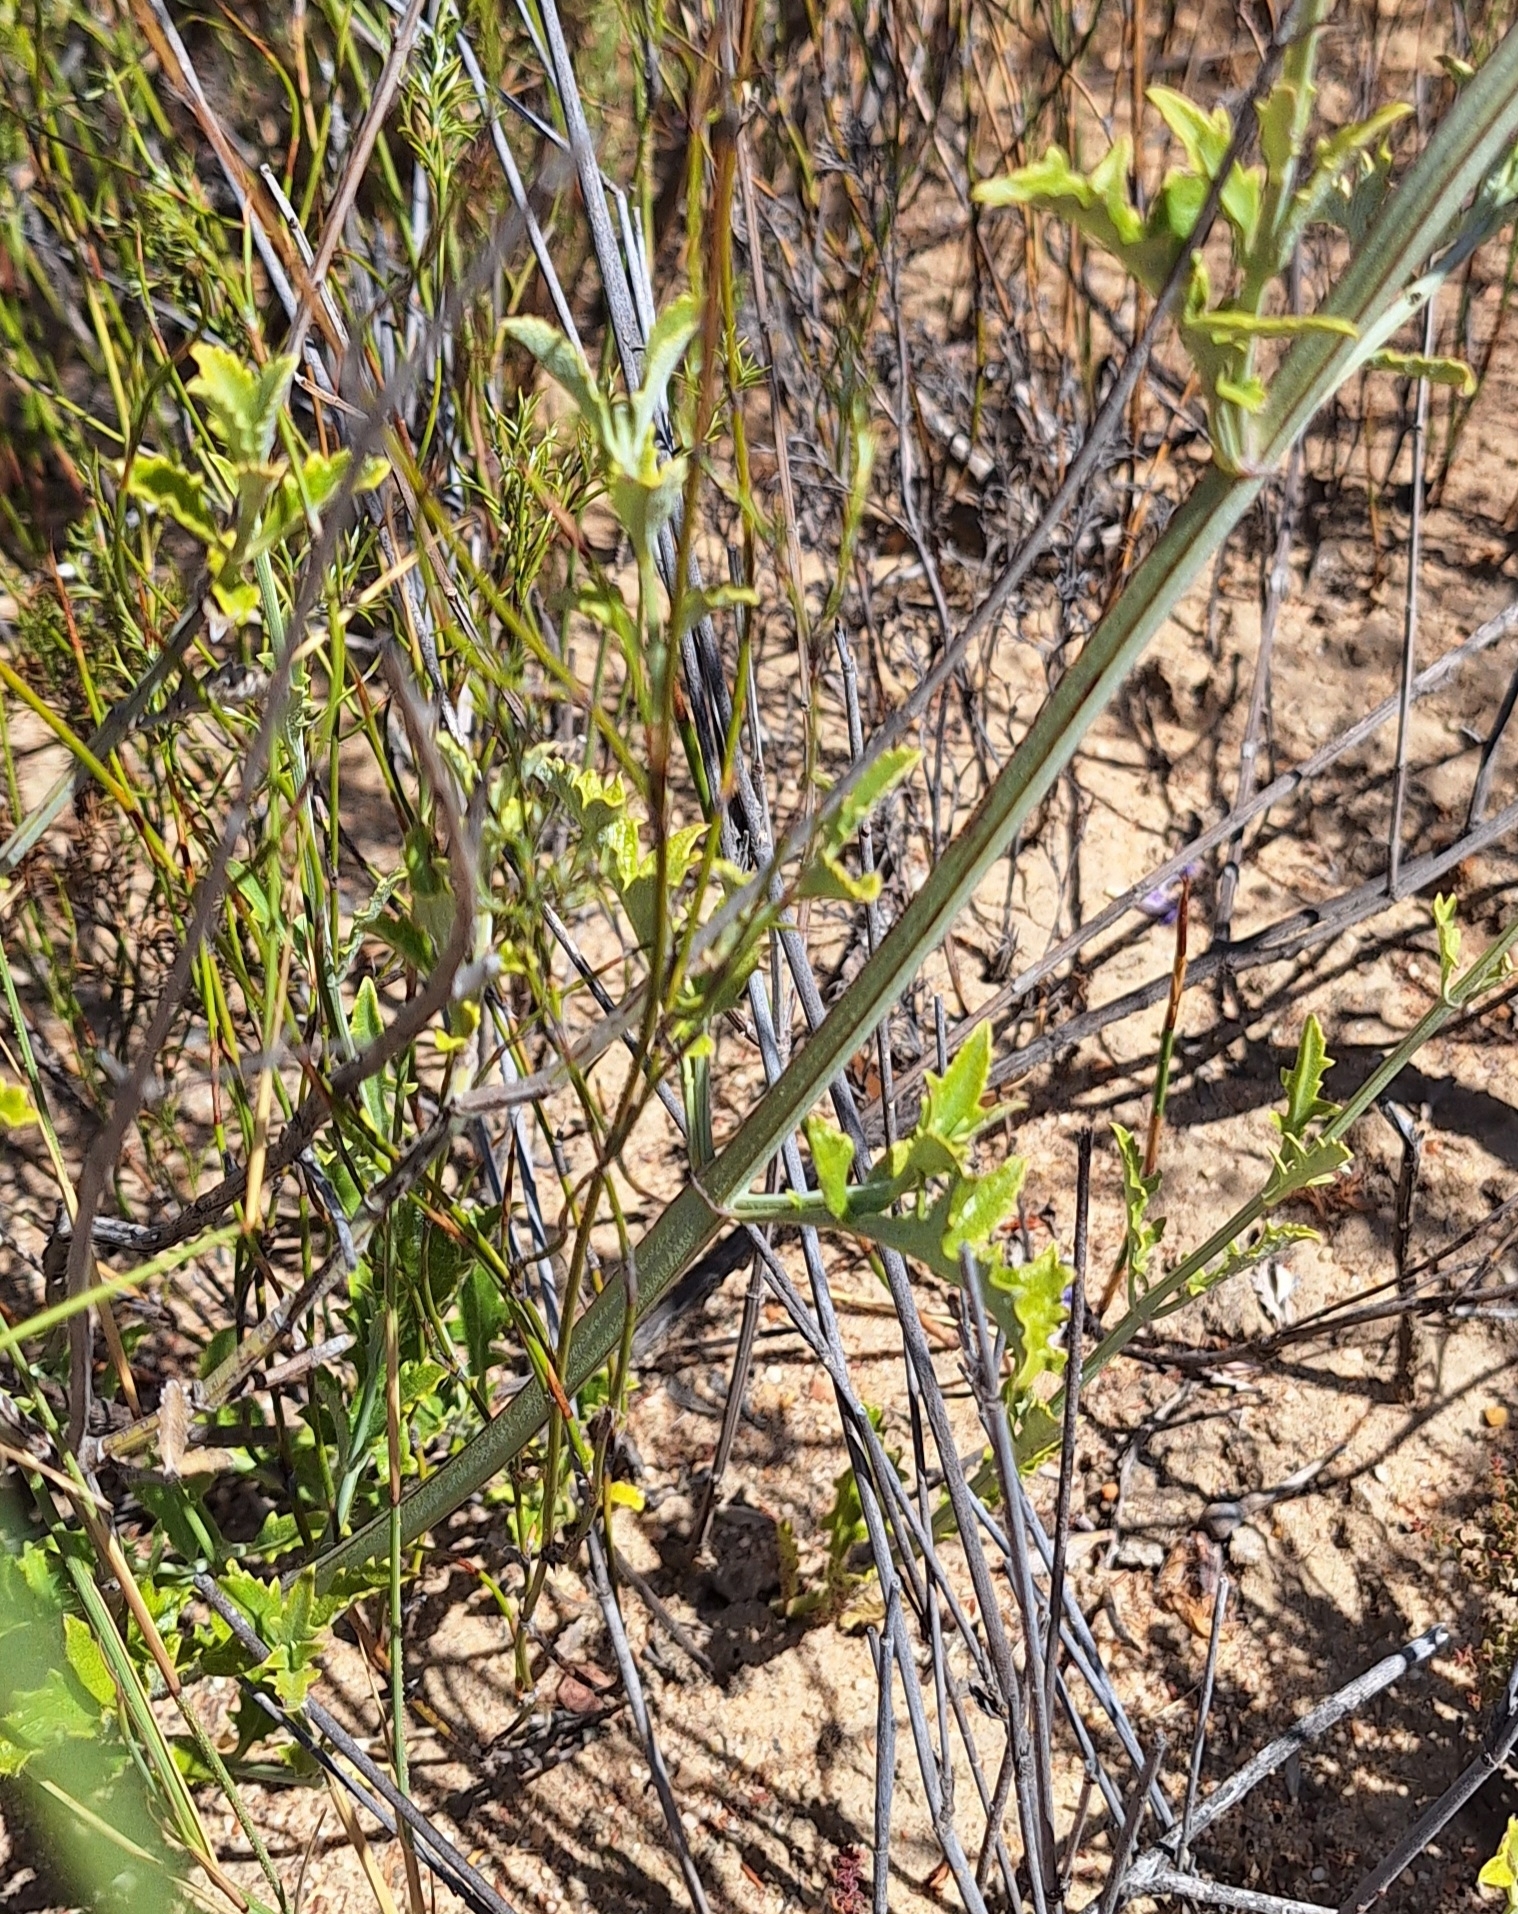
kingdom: Plantae
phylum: Tracheophyta
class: Magnoliopsida
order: Lamiales
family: Lamiaceae
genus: Salvia
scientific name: Salvia albicaulis
